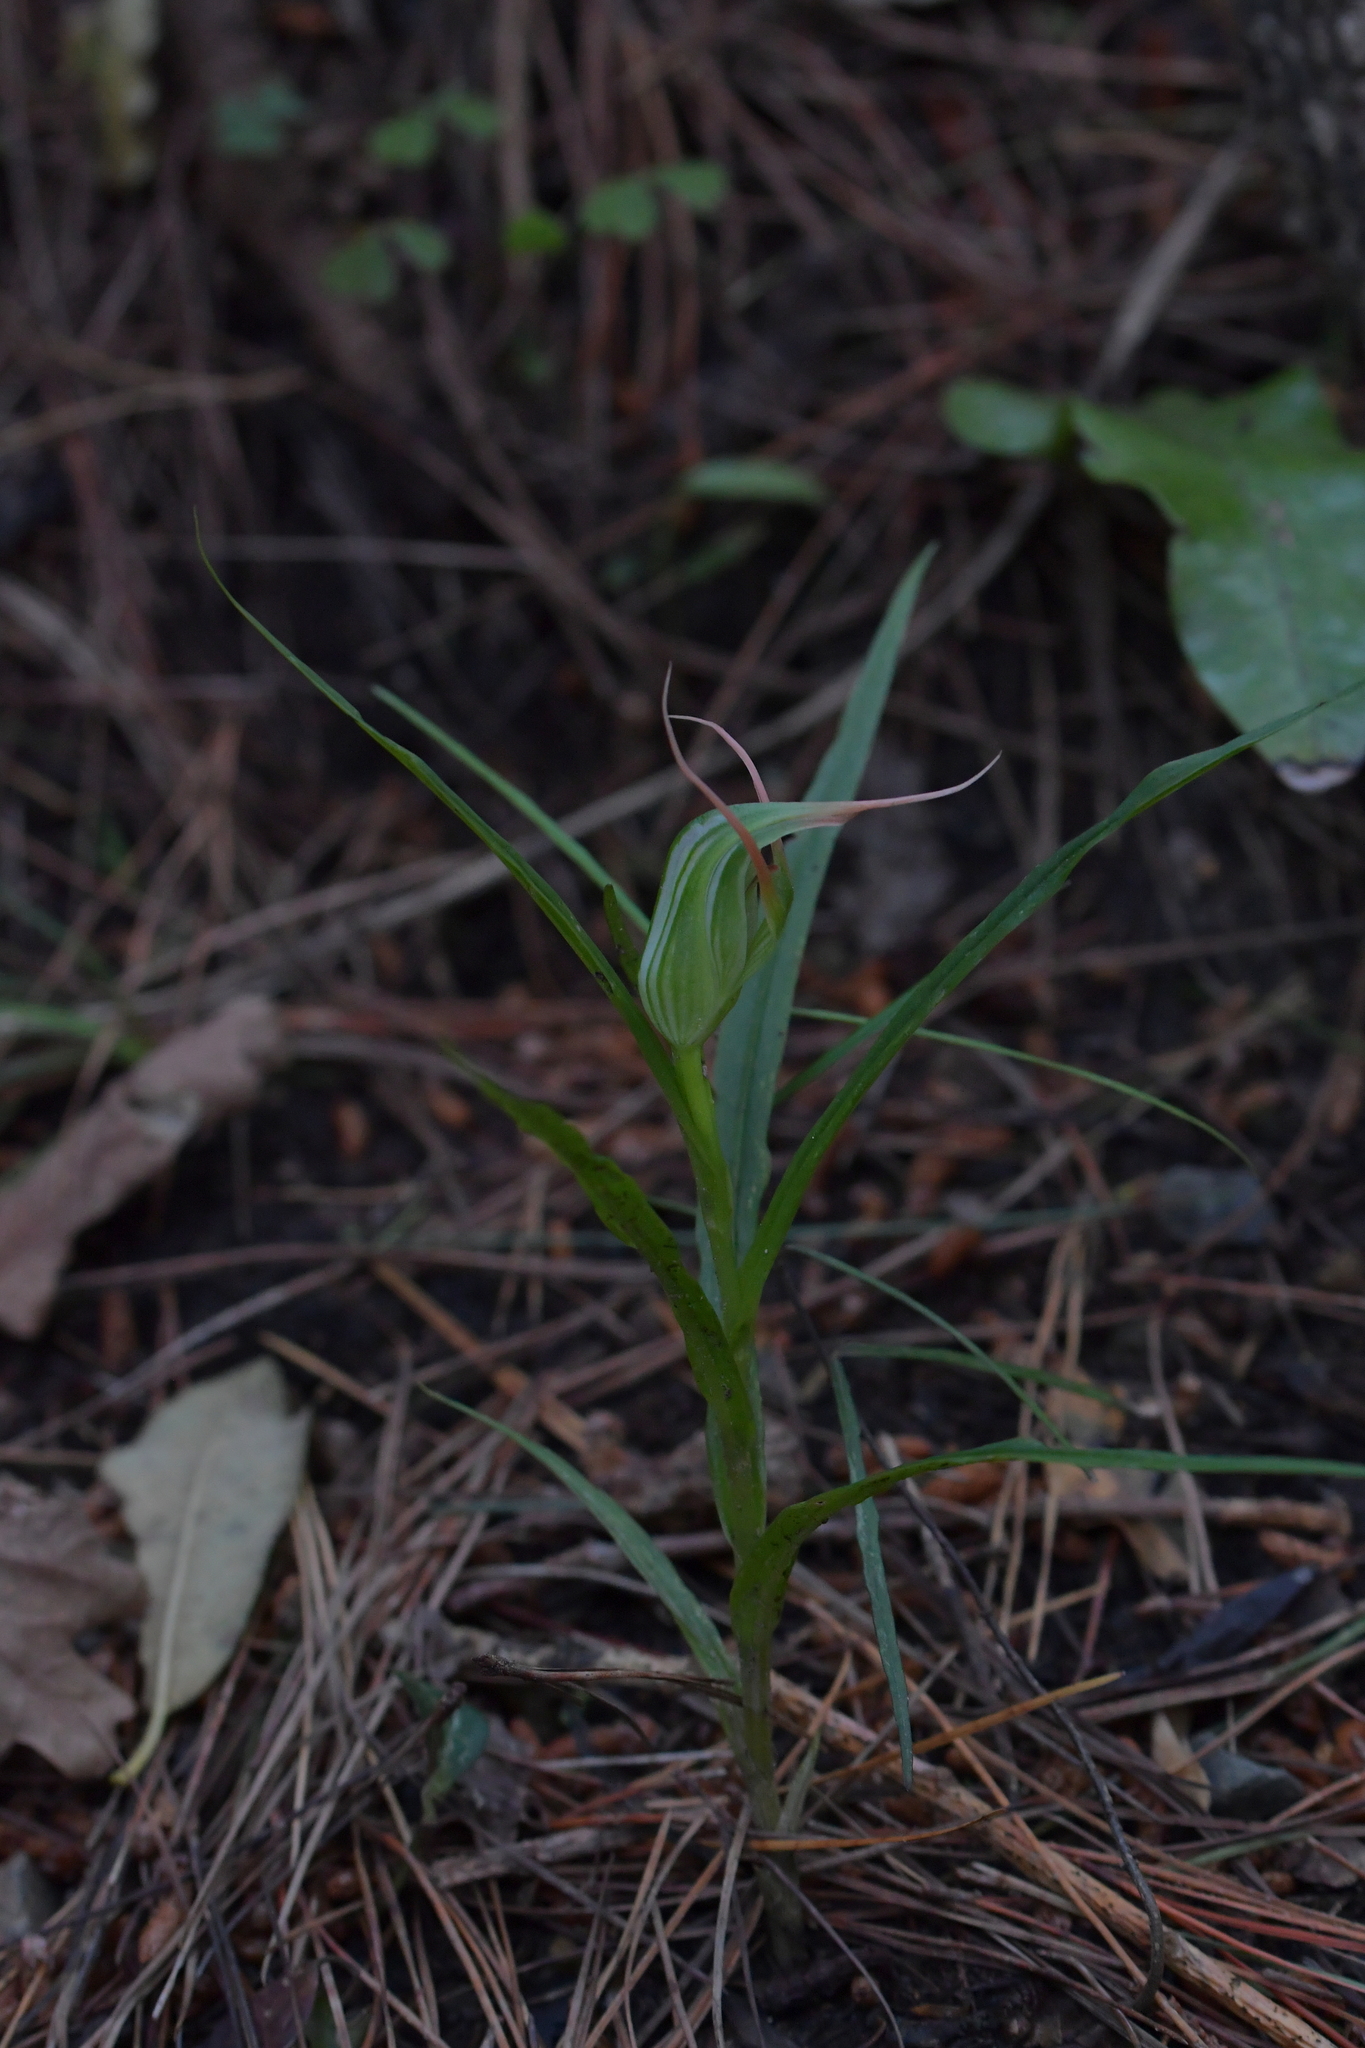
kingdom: Plantae
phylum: Tracheophyta
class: Liliopsida
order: Asparagales
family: Orchidaceae
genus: Pterostylis
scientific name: Pterostylis banksii
